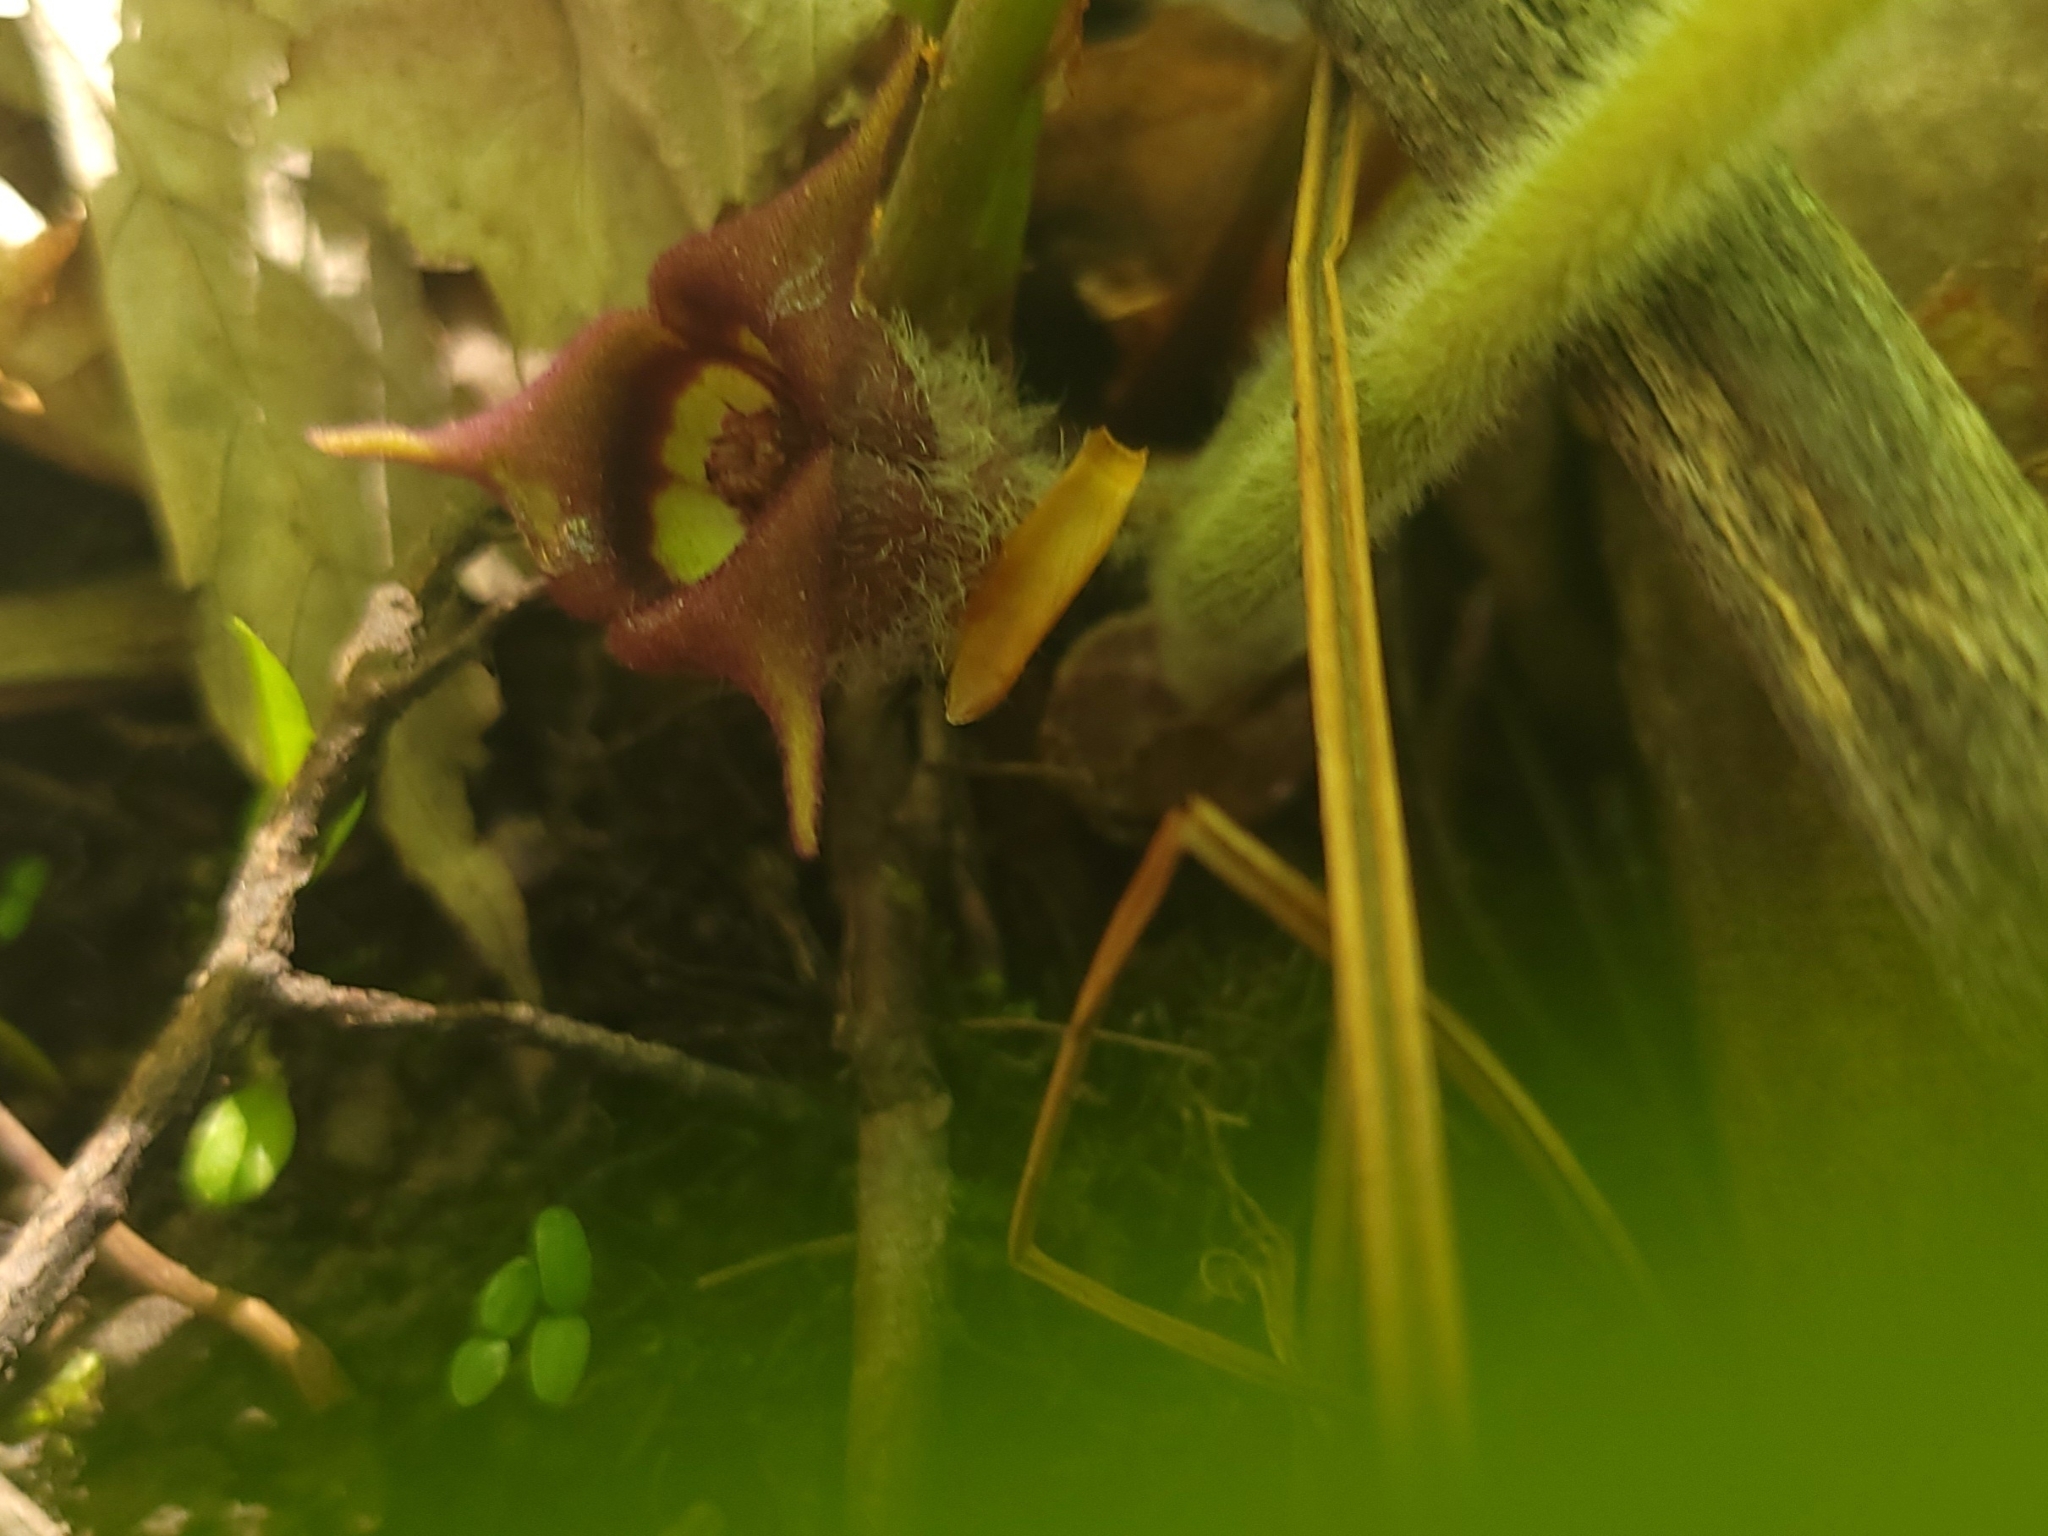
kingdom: Plantae
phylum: Tracheophyta
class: Magnoliopsida
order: Piperales
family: Aristolochiaceae
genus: Asarum
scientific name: Asarum canadense
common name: Wild ginger
